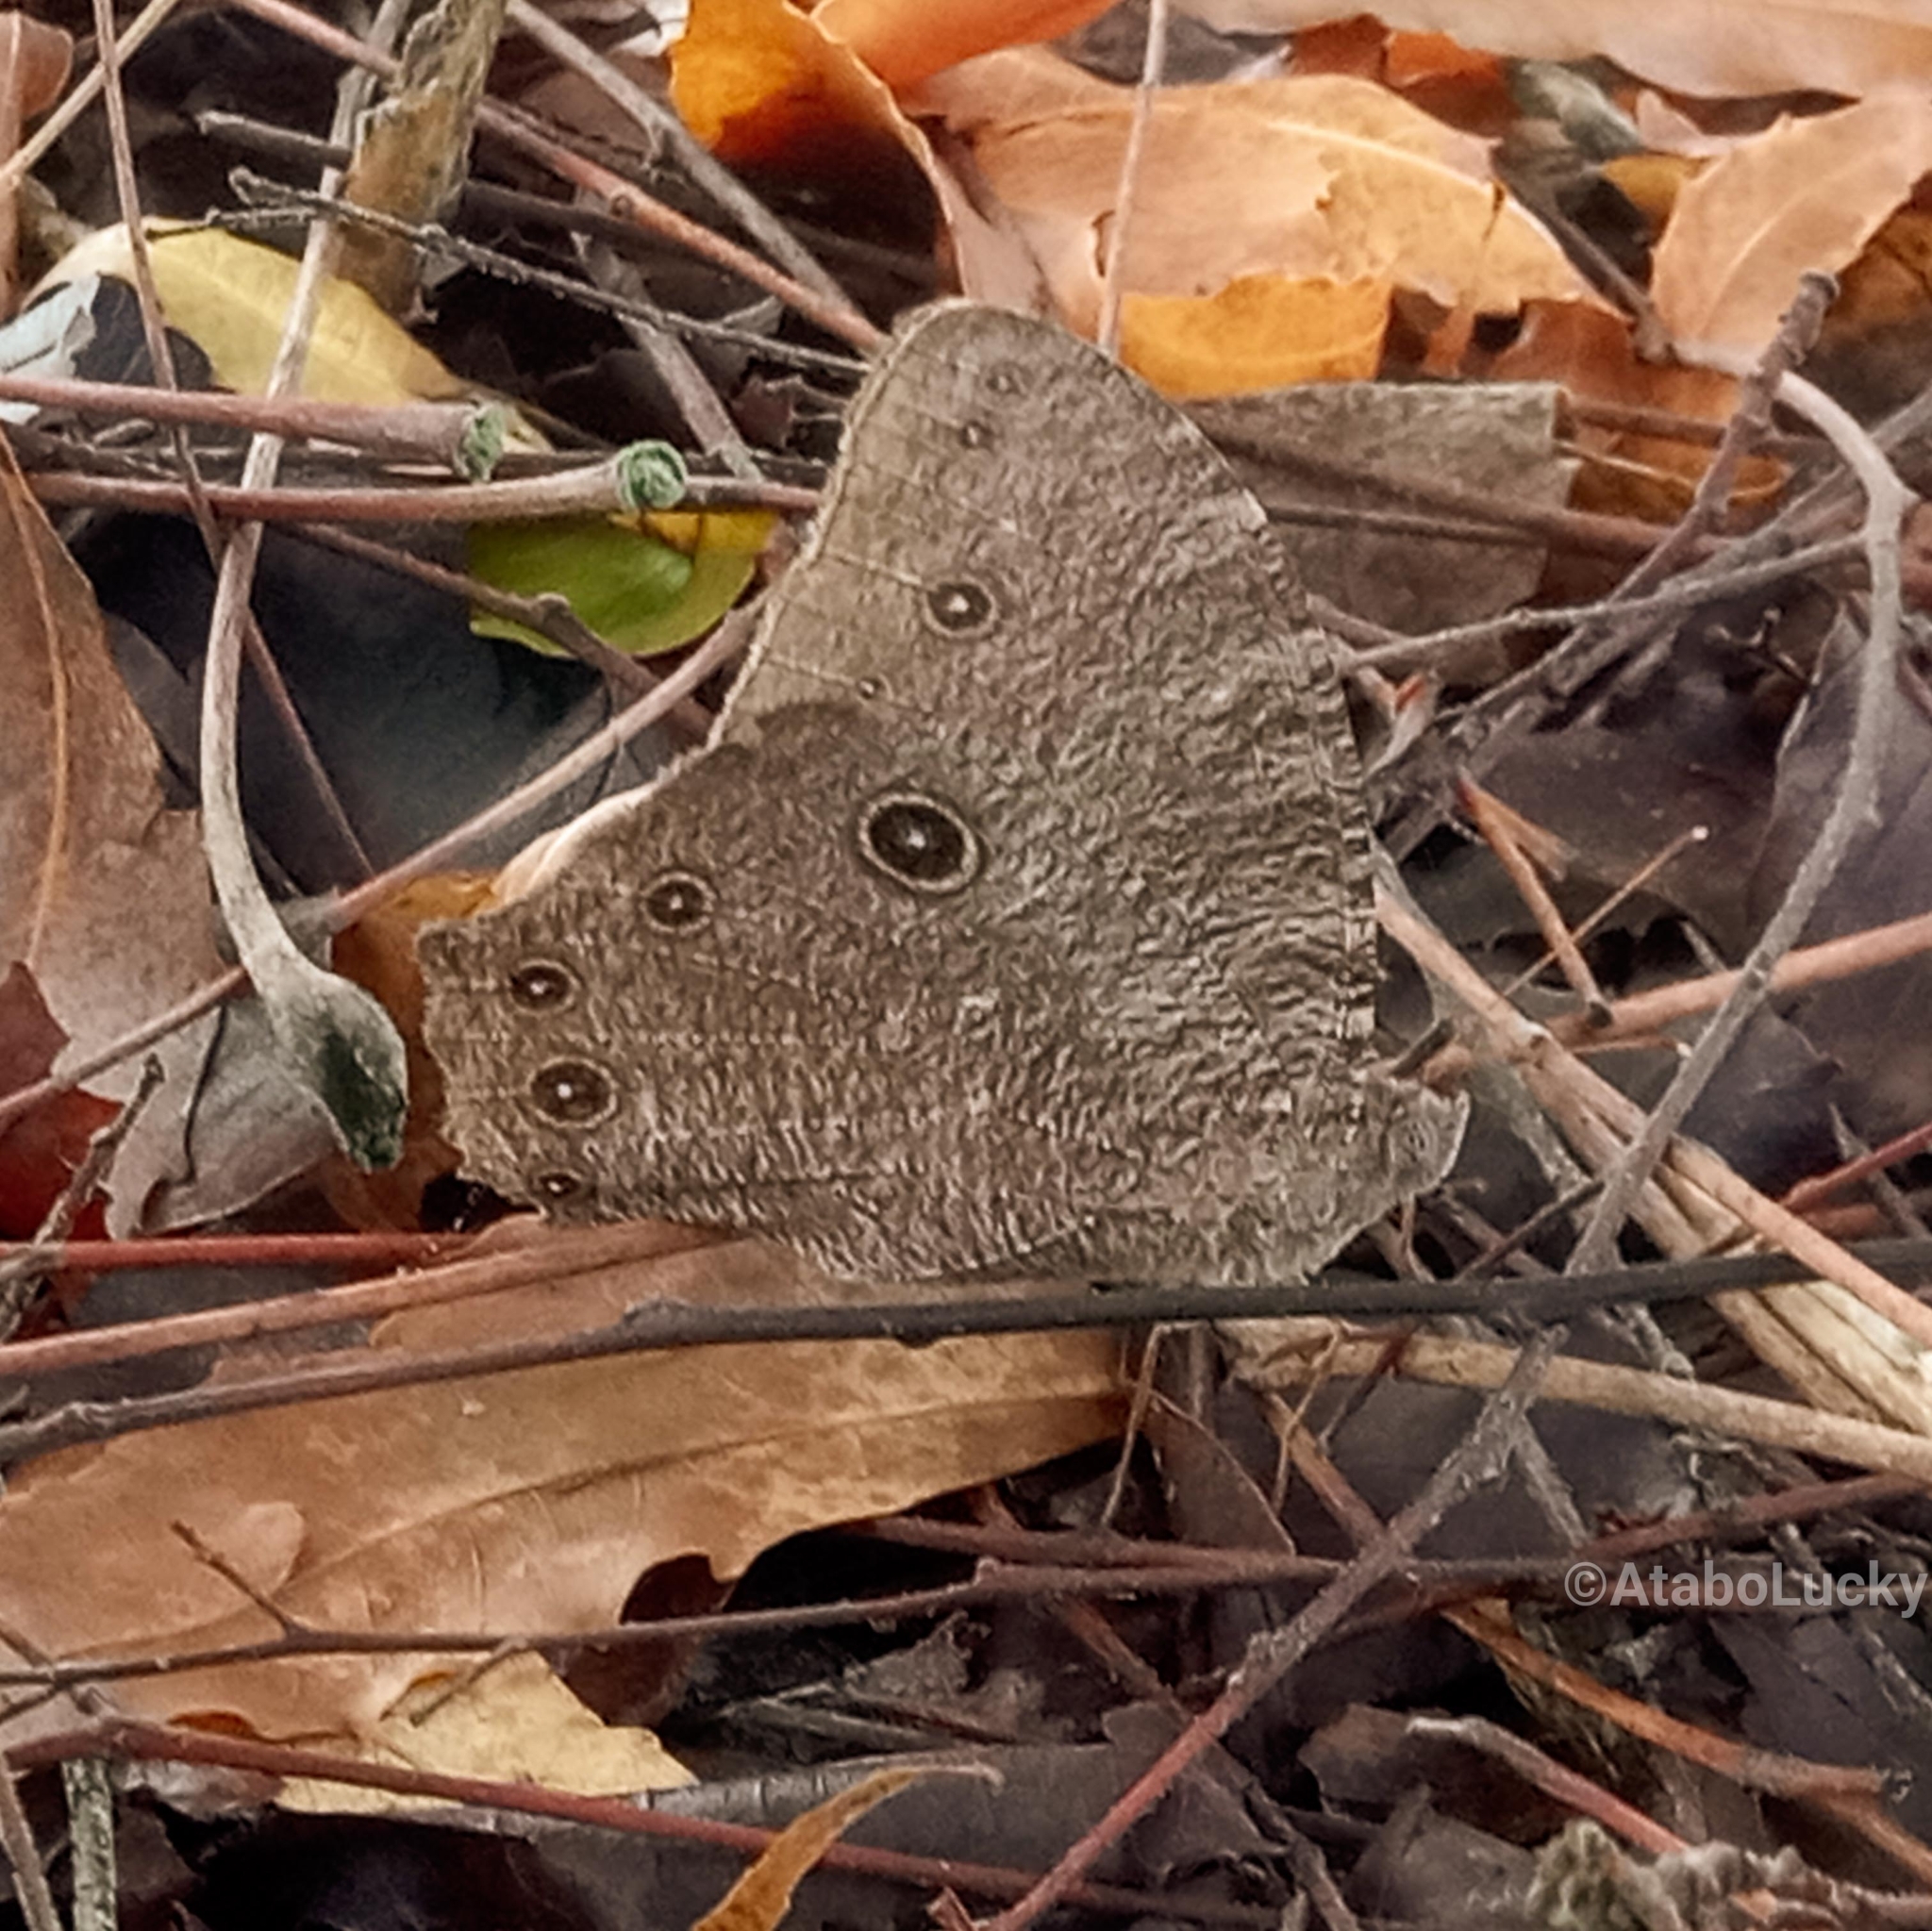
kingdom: Animalia
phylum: Arthropoda
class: Insecta
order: Lepidoptera
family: Nymphalidae
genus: Melanitis
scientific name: Melanitis leda
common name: Twilight brown
